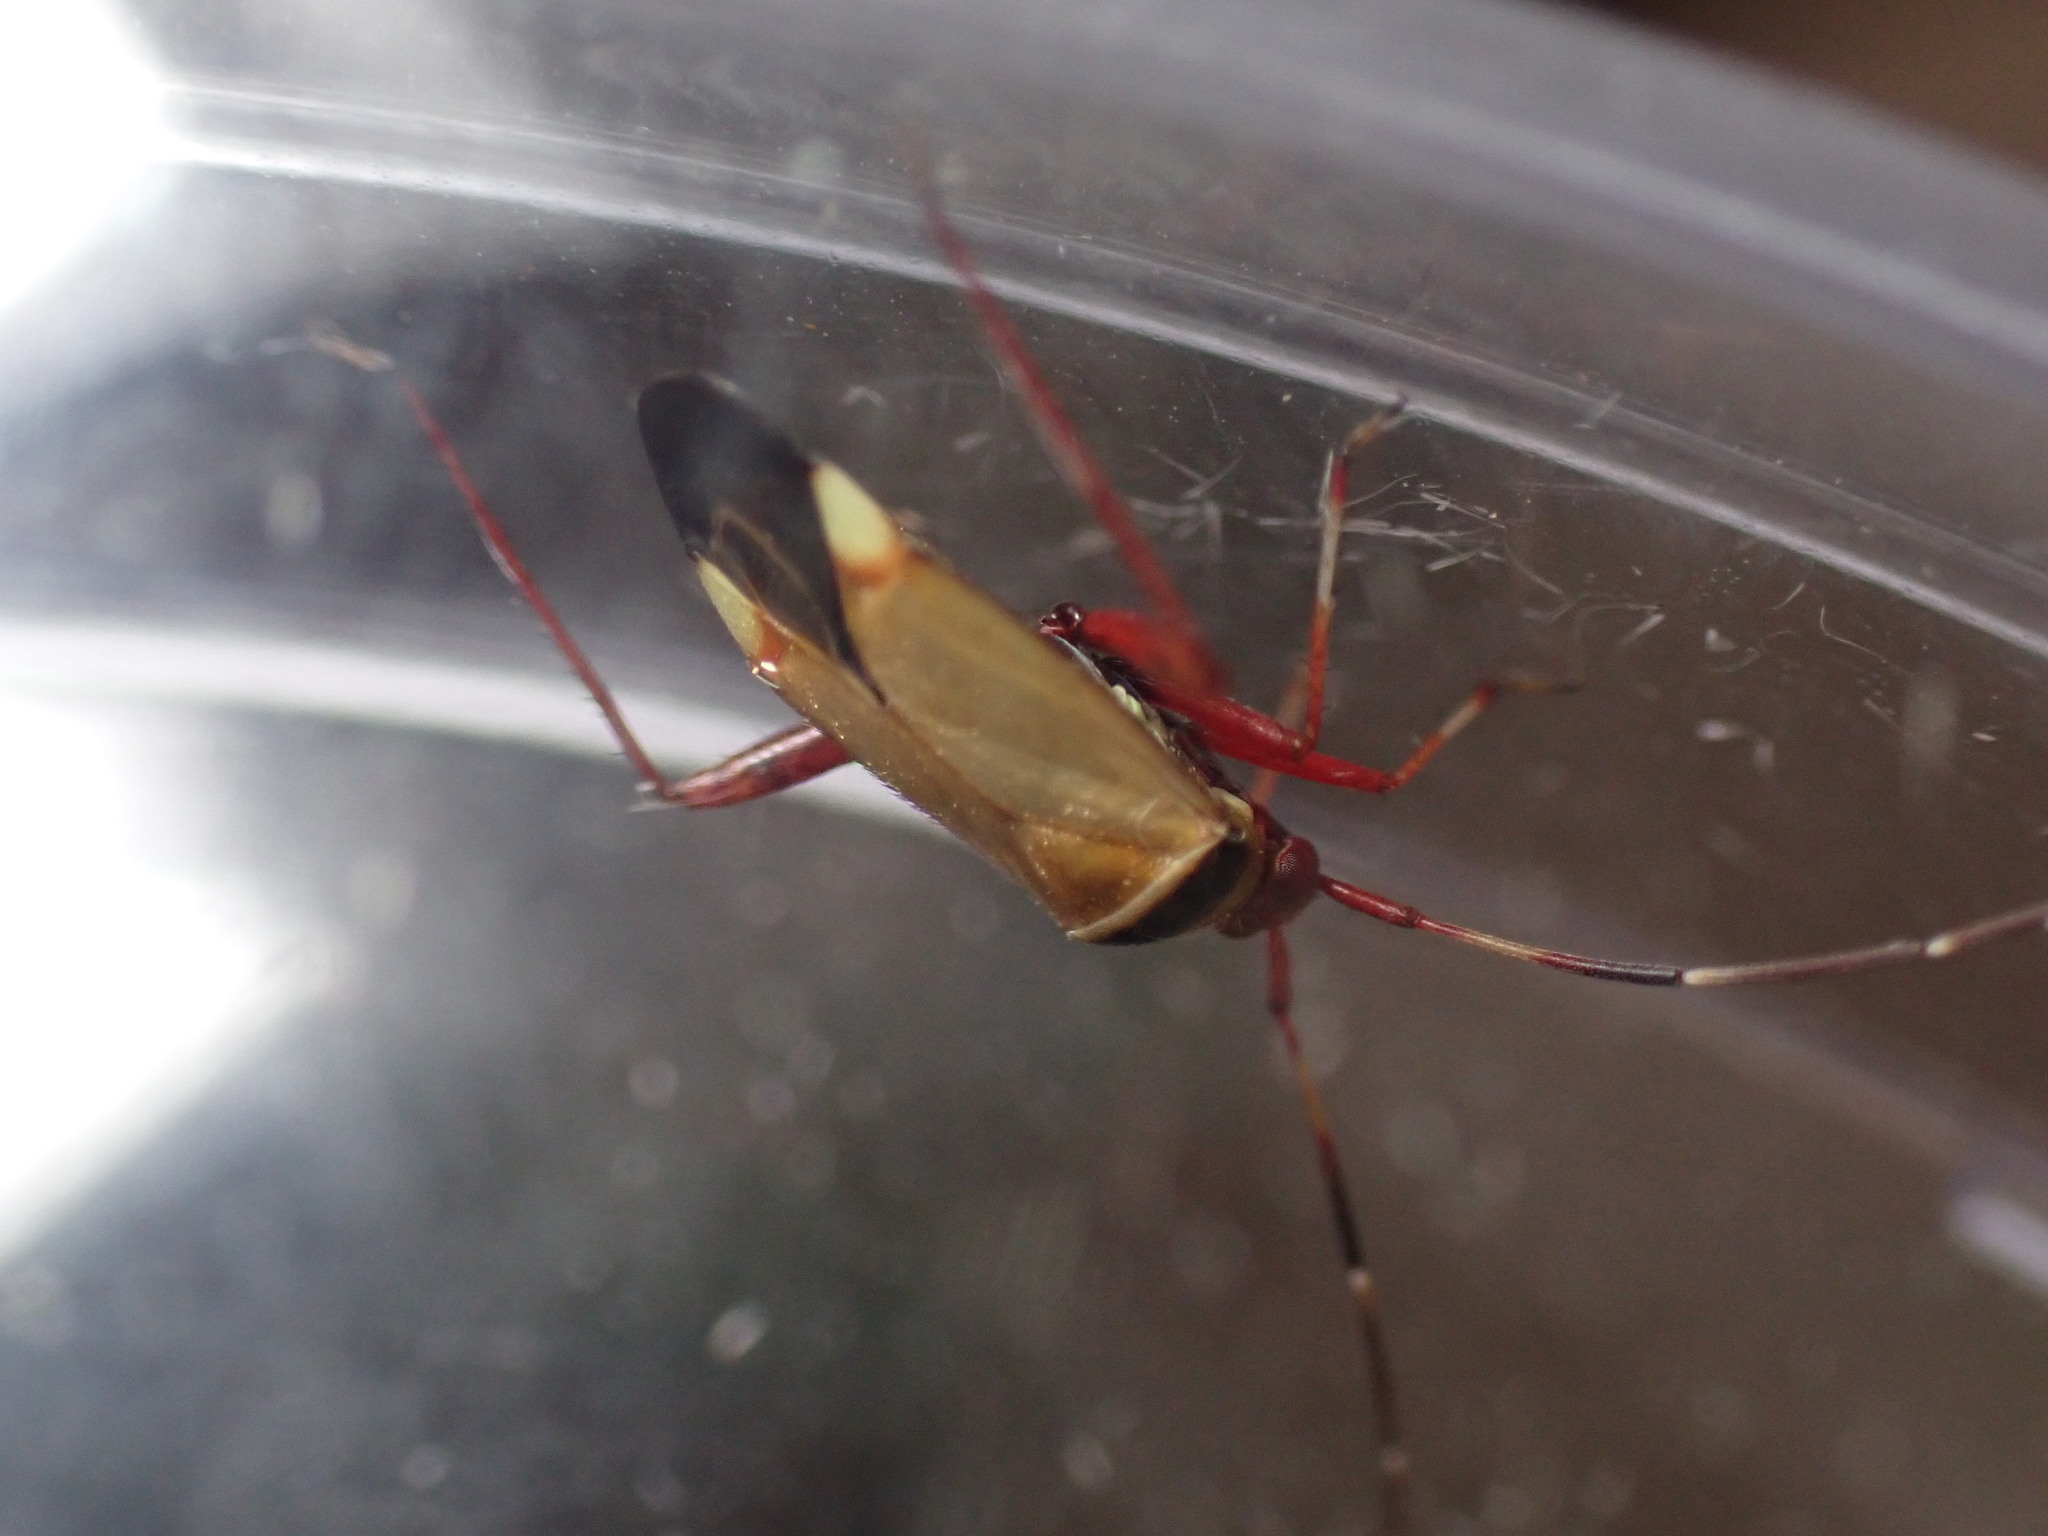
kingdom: Animalia
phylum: Arthropoda
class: Insecta
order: Hemiptera
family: Miridae
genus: Adelphocoris
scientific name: Adelphocoris vandalicus
